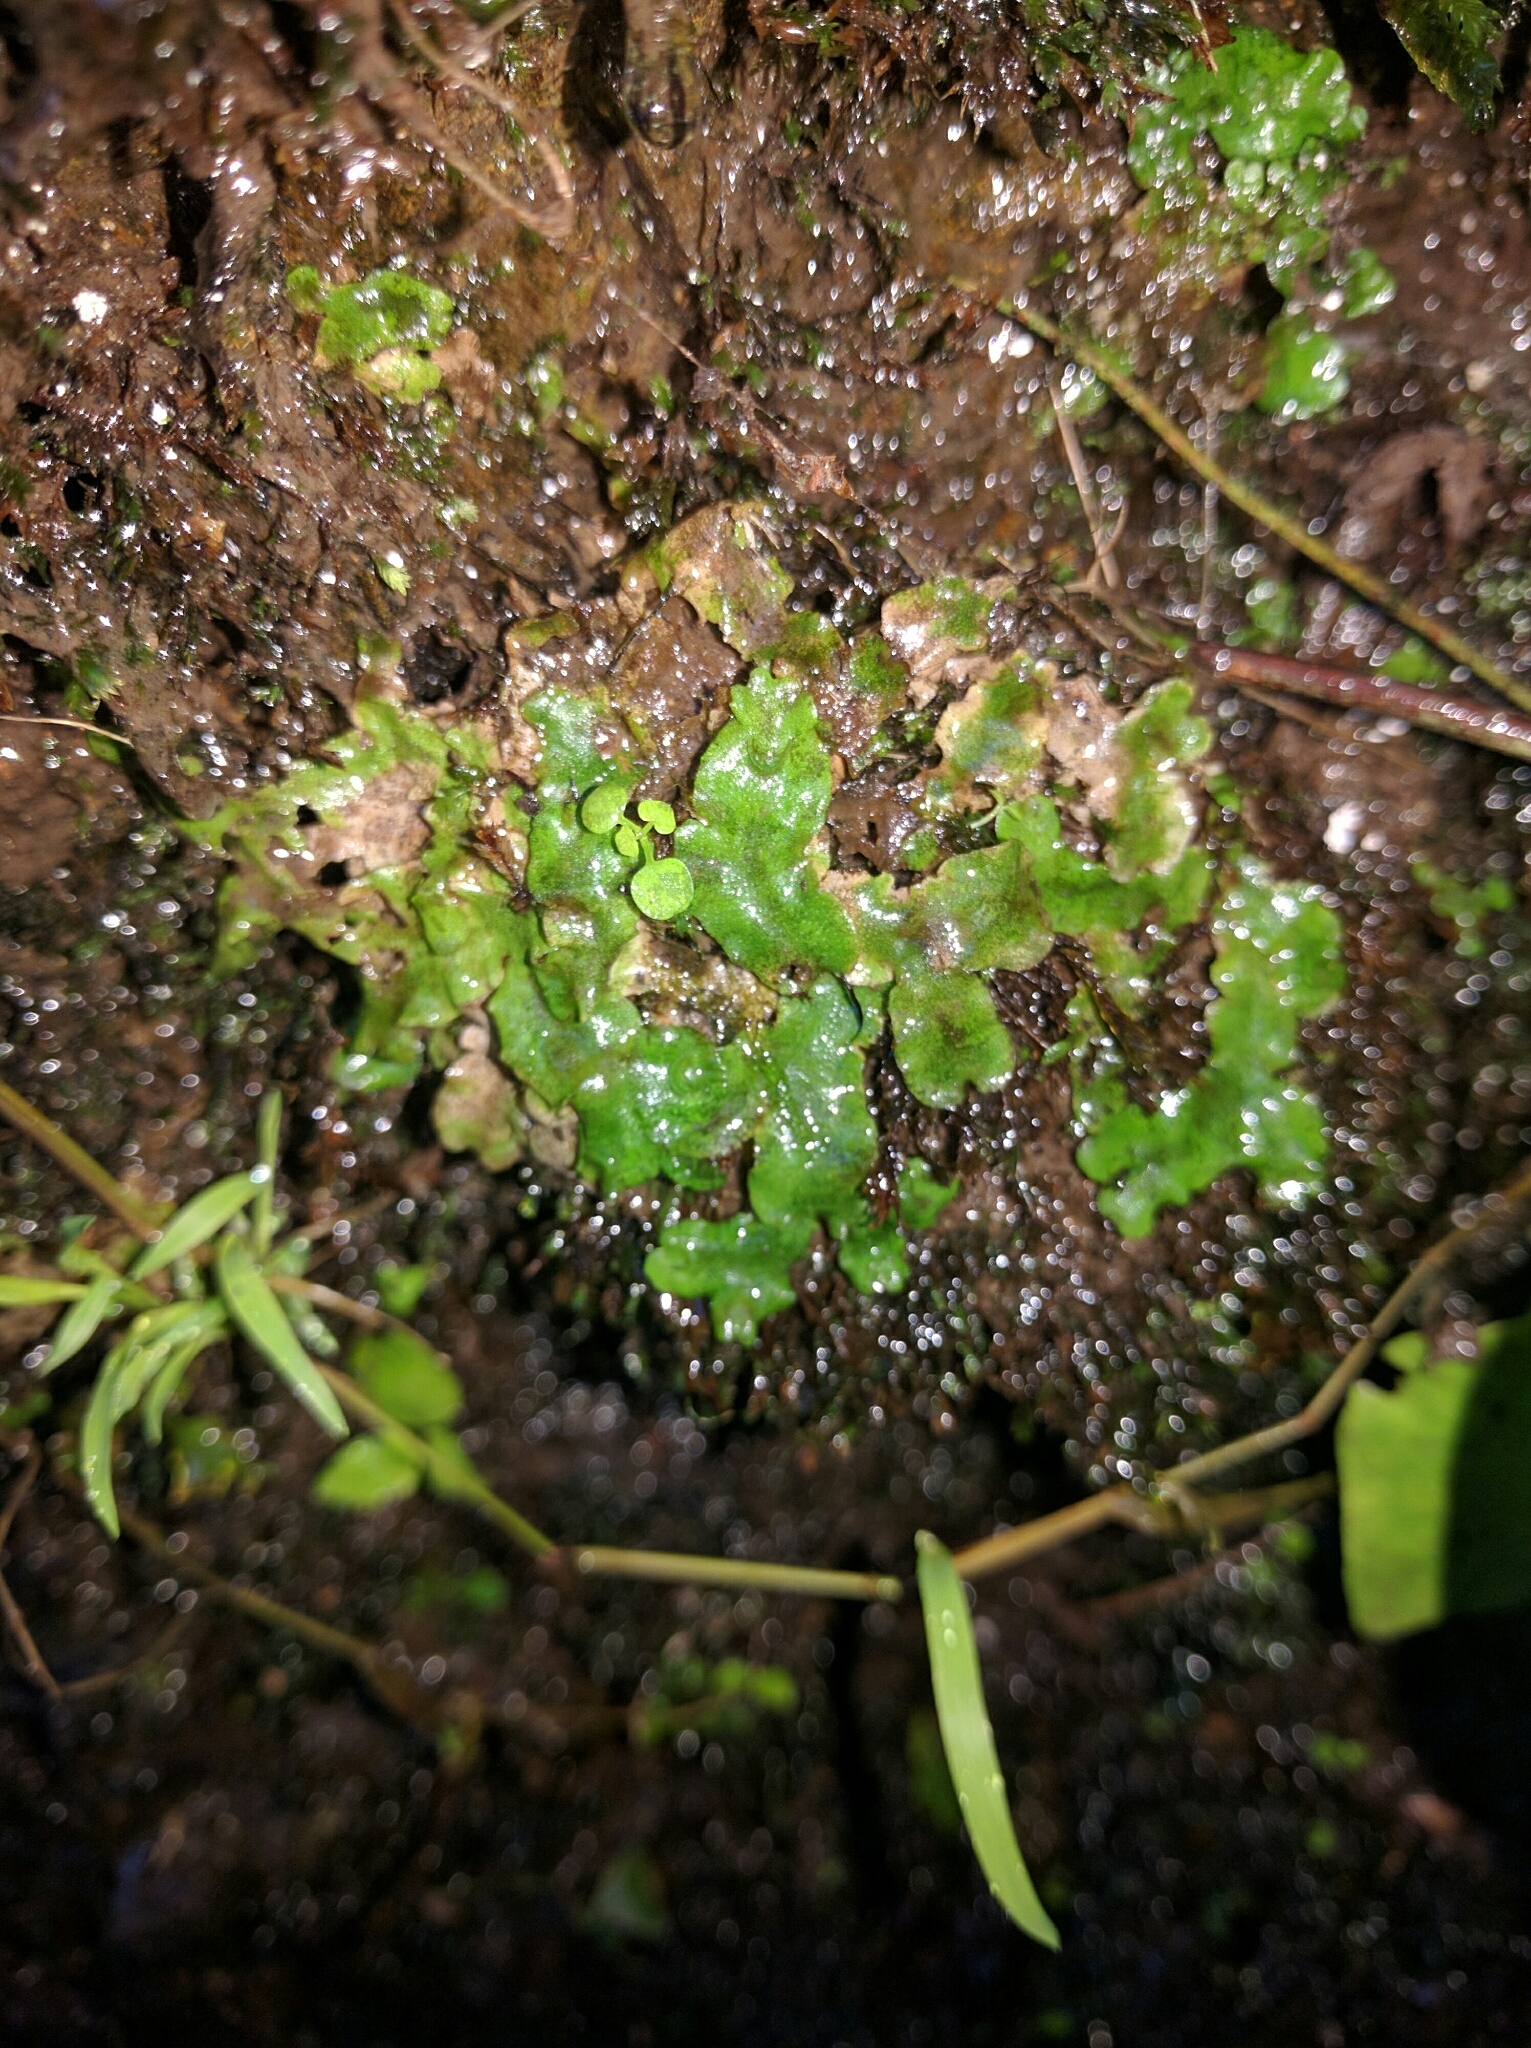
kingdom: Plantae
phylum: Marchantiophyta
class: Marchantiopsida
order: Lunulariales
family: Lunulariaceae
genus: Lunularia
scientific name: Lunularia cruciata
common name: Crescent-cup liverwort
